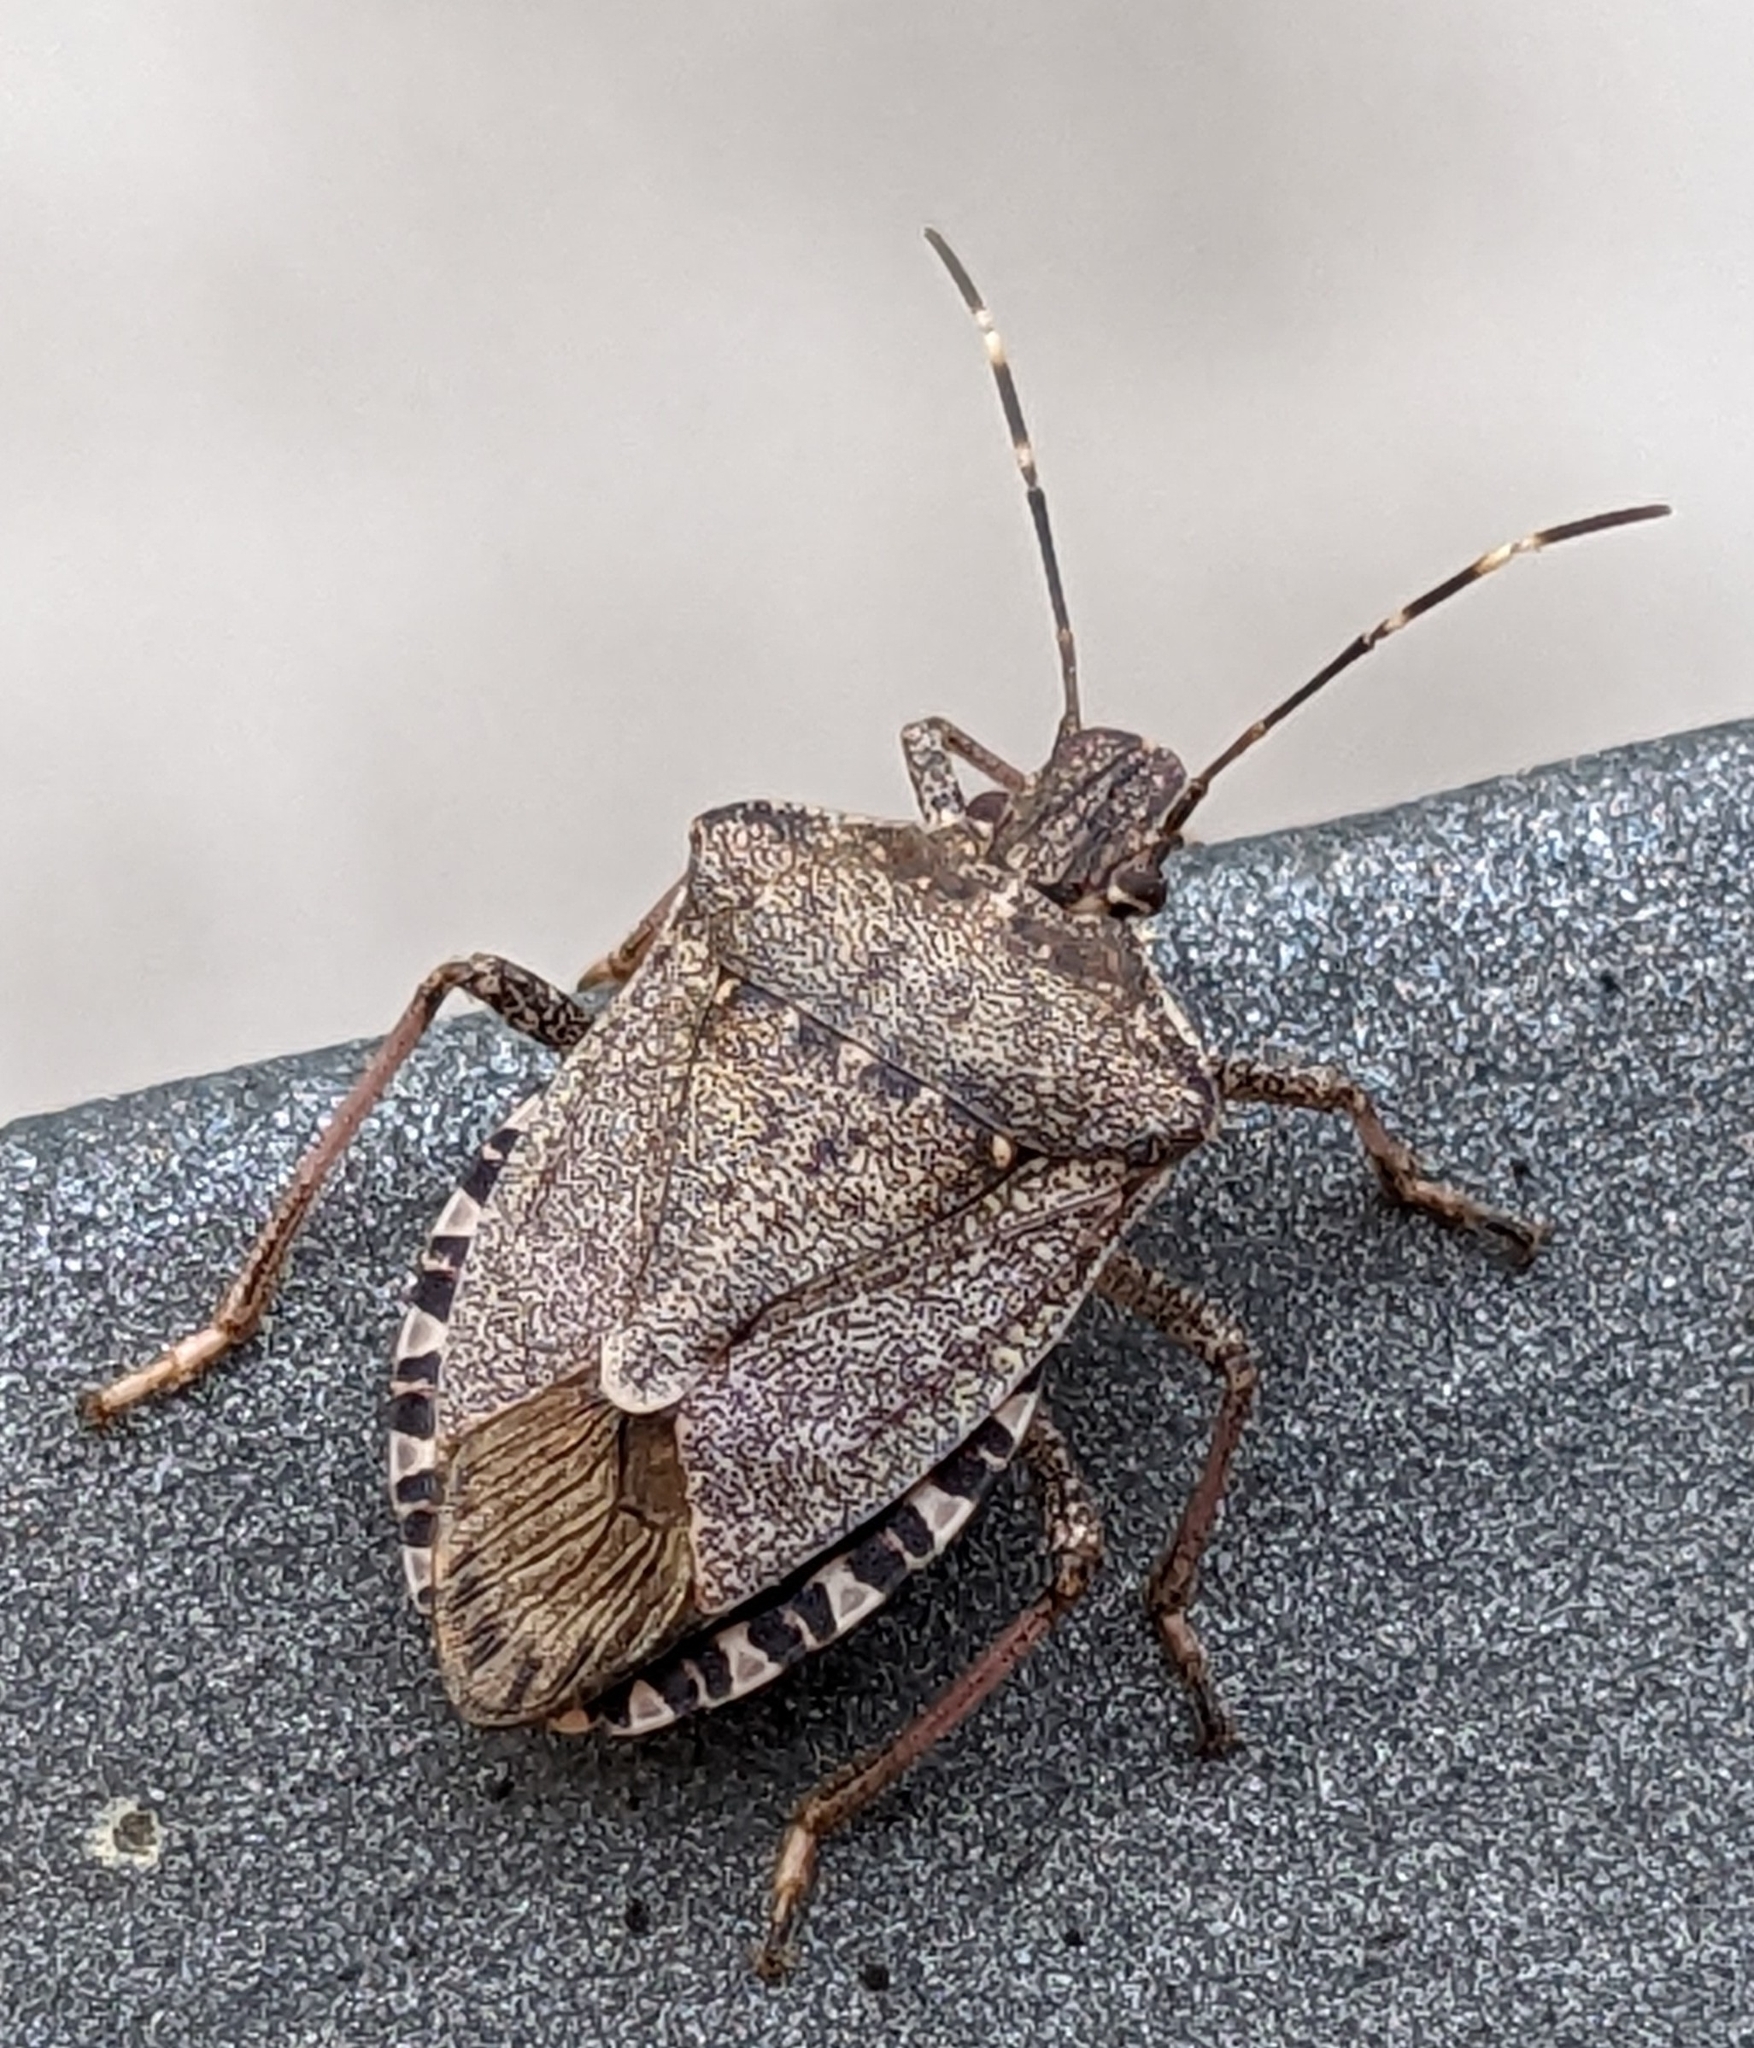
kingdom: Animalia
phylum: Arthropoda
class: Insecta
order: Hemiptera
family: Pentatomidae
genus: Halyomorpha
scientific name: Halyomorpha halys
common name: Brown marmorated stink bug
